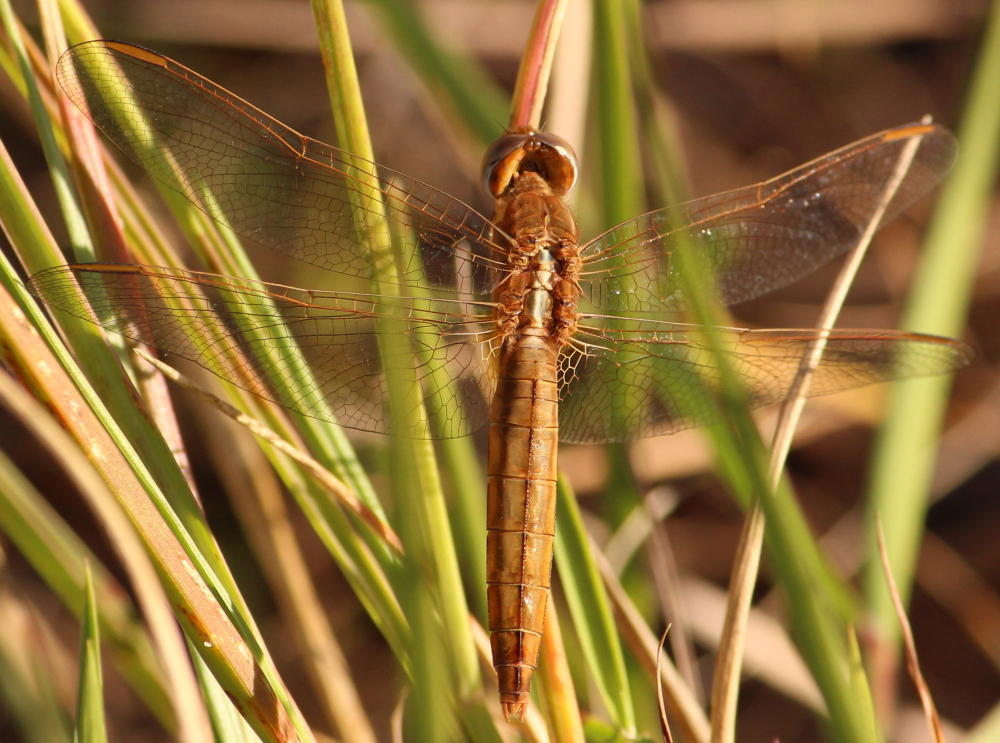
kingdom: Animalia
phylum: Arthropoda
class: Insecta
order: Odonata
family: Libellulidae
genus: Crocothemis
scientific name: Crocothemis erythraea
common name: Scarlet dragonfly
